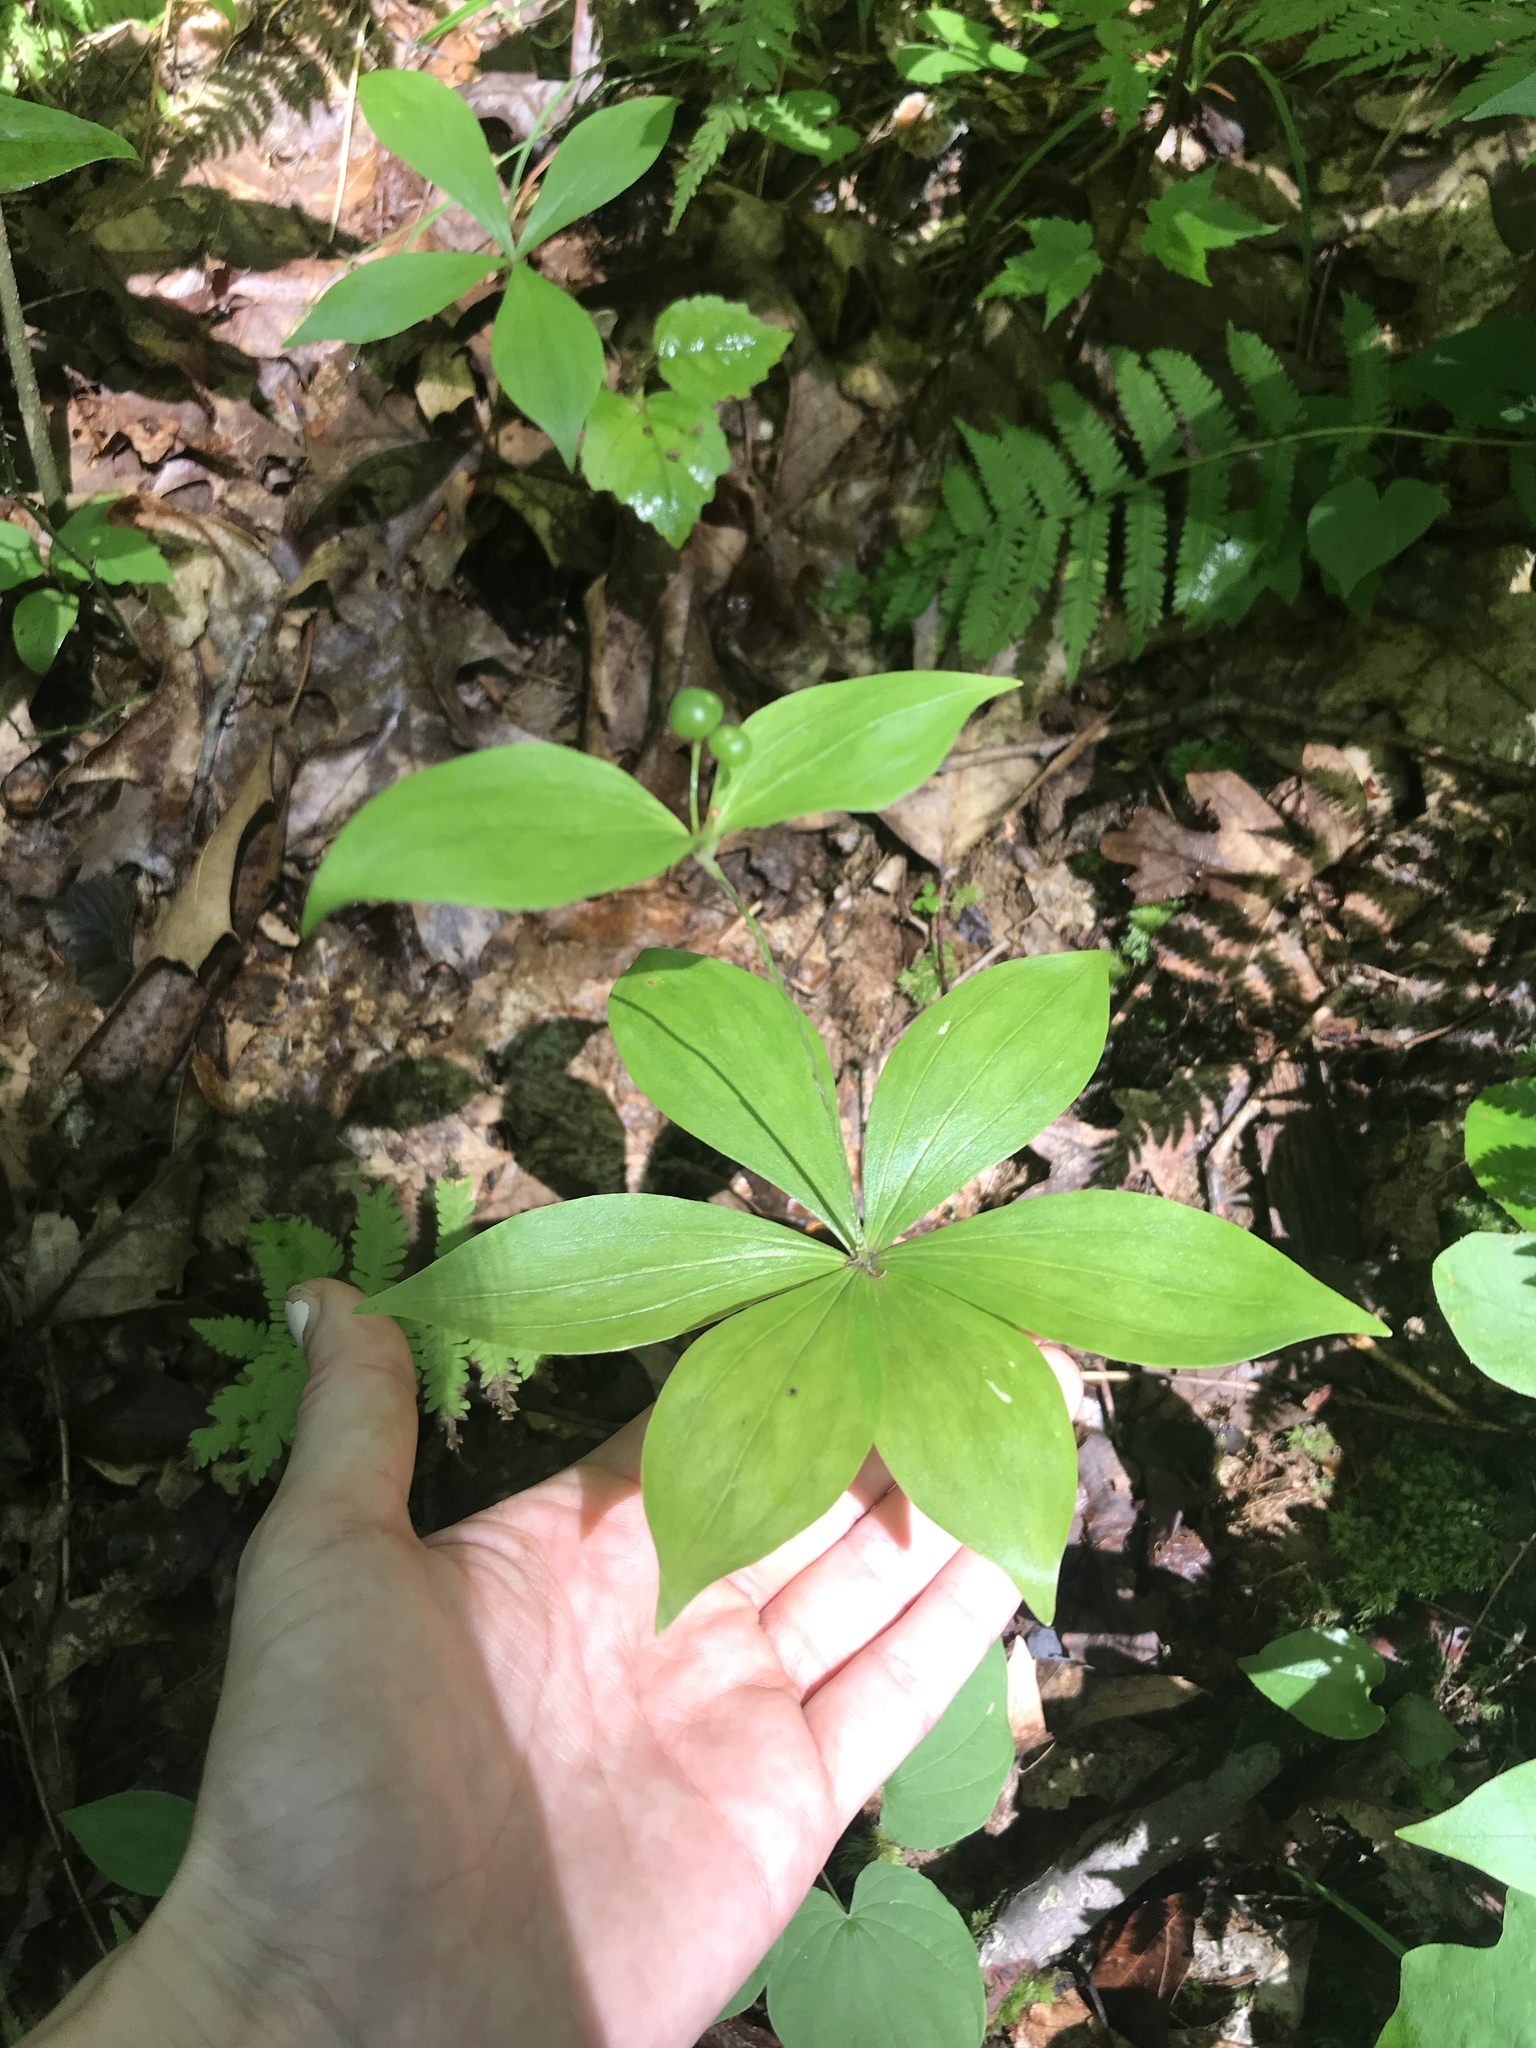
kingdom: Plantae
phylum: Tracheophyta
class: Liliopsida
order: Liliales
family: Liliaceae
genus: Medeola
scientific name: Medeola virginiana
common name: Indian cucumber-root
